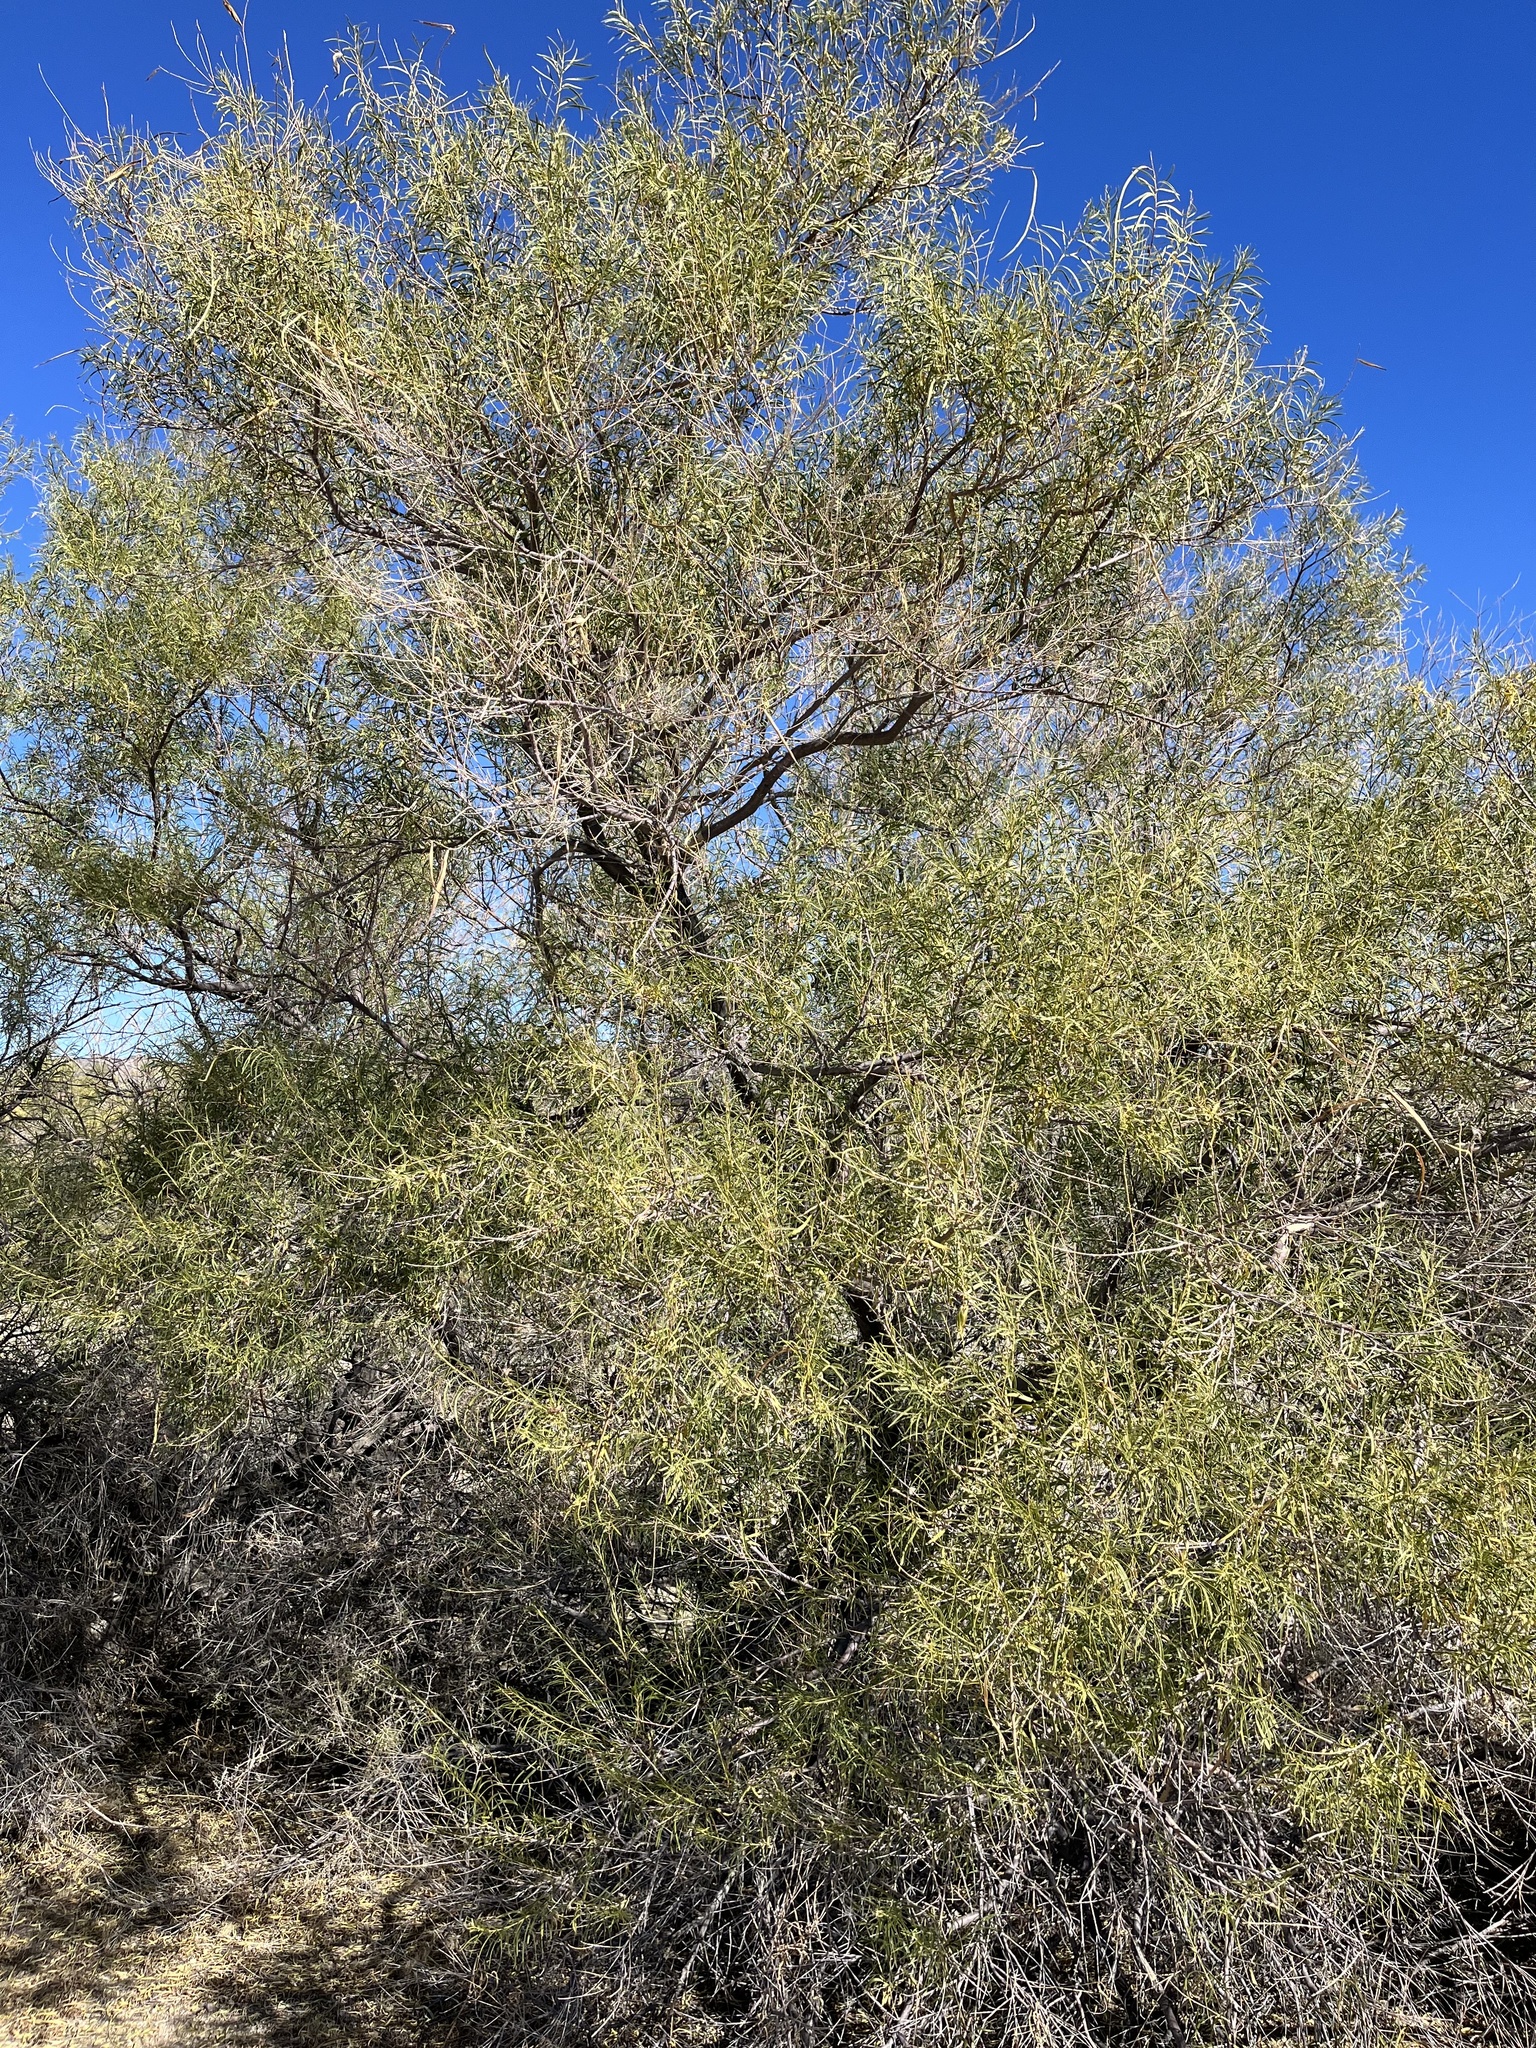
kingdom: Plantae
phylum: Tracheophyta
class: Magnoliopsida
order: Lamiales
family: Bignoniaceae
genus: Chilopsis
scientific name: Chilopsis linearis
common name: Desert-willow
